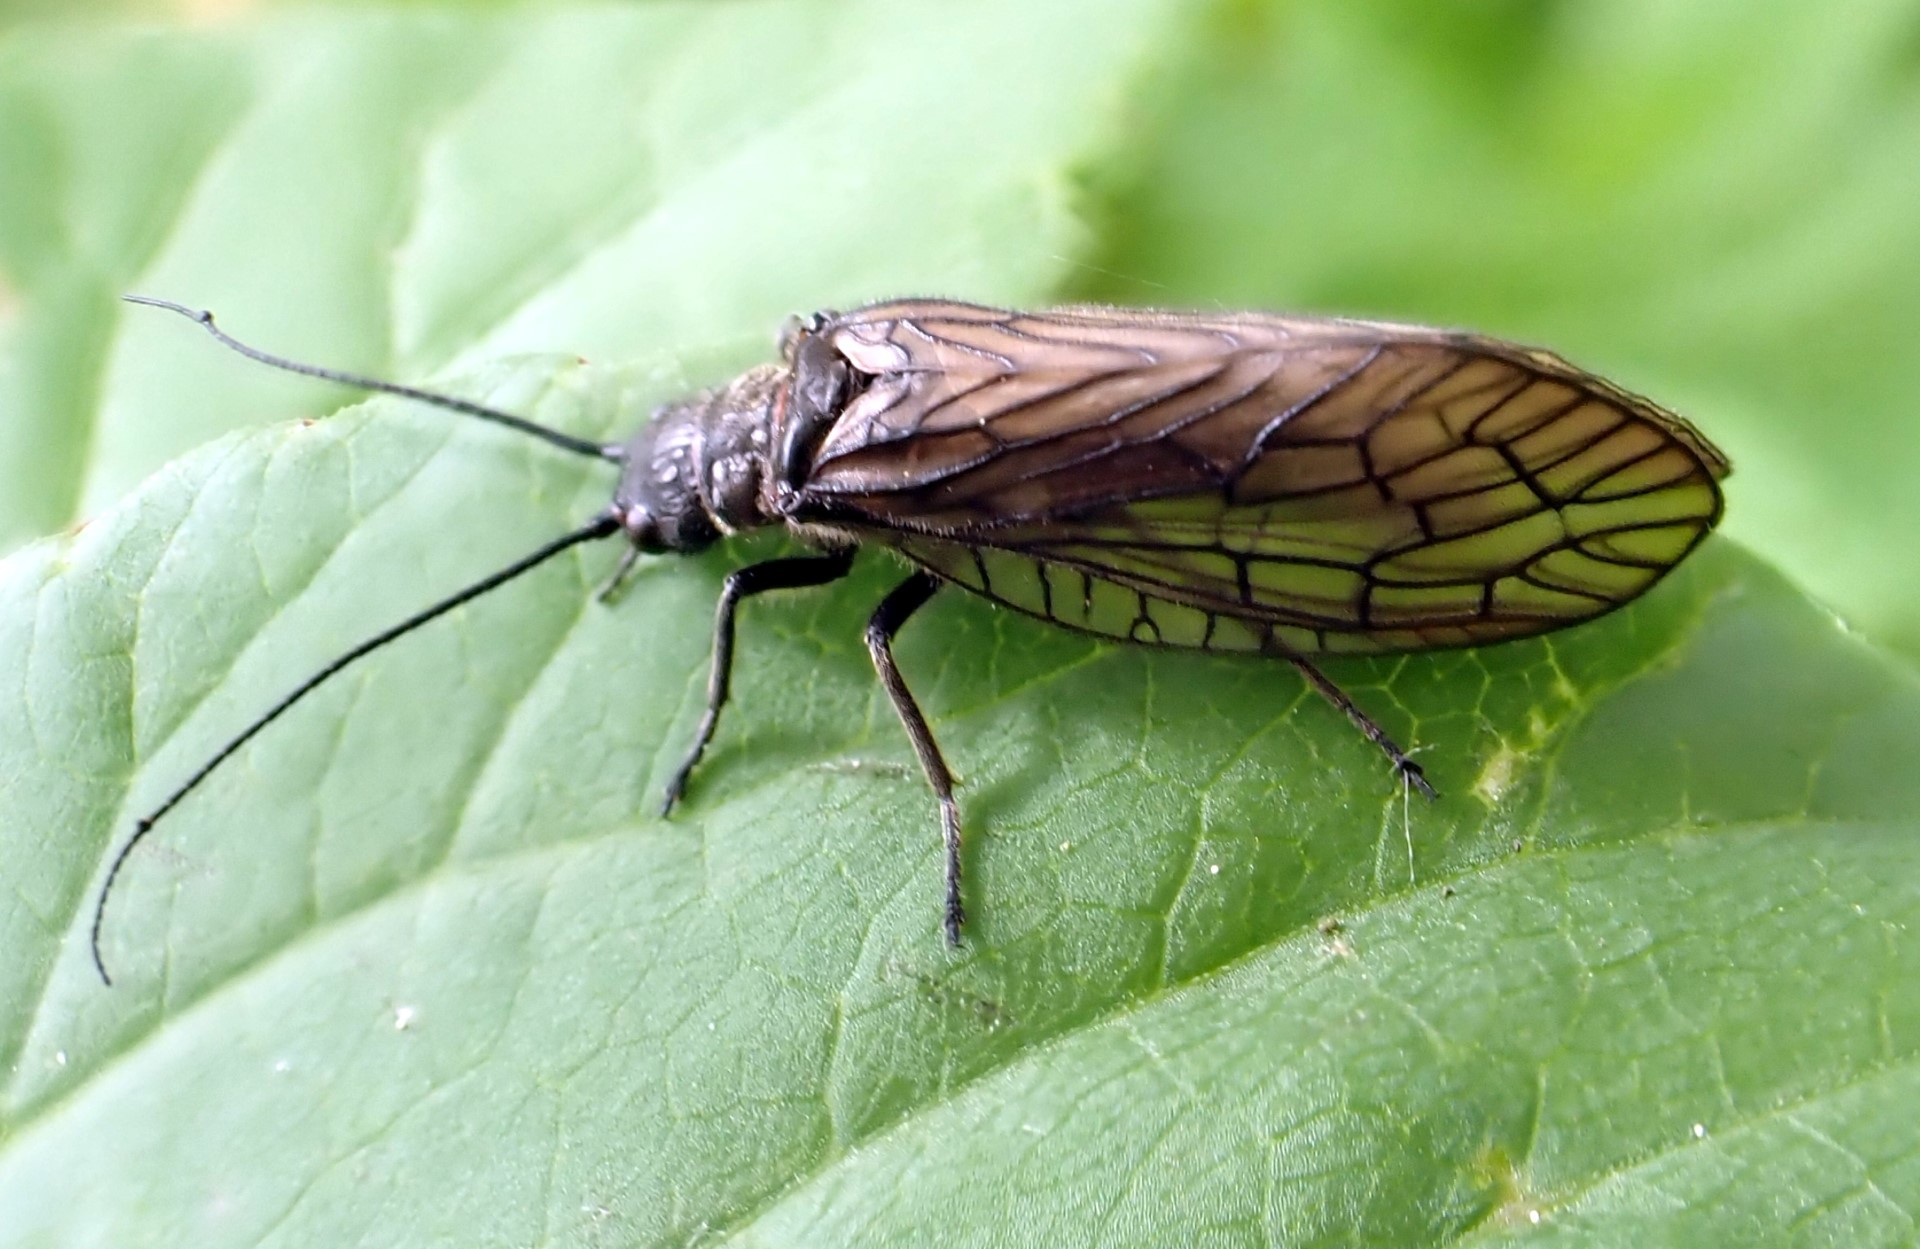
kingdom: Animalia
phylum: Arthropoda
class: Insecta
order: Megaloptera
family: Sialidae
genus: Sialis
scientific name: Sialis
